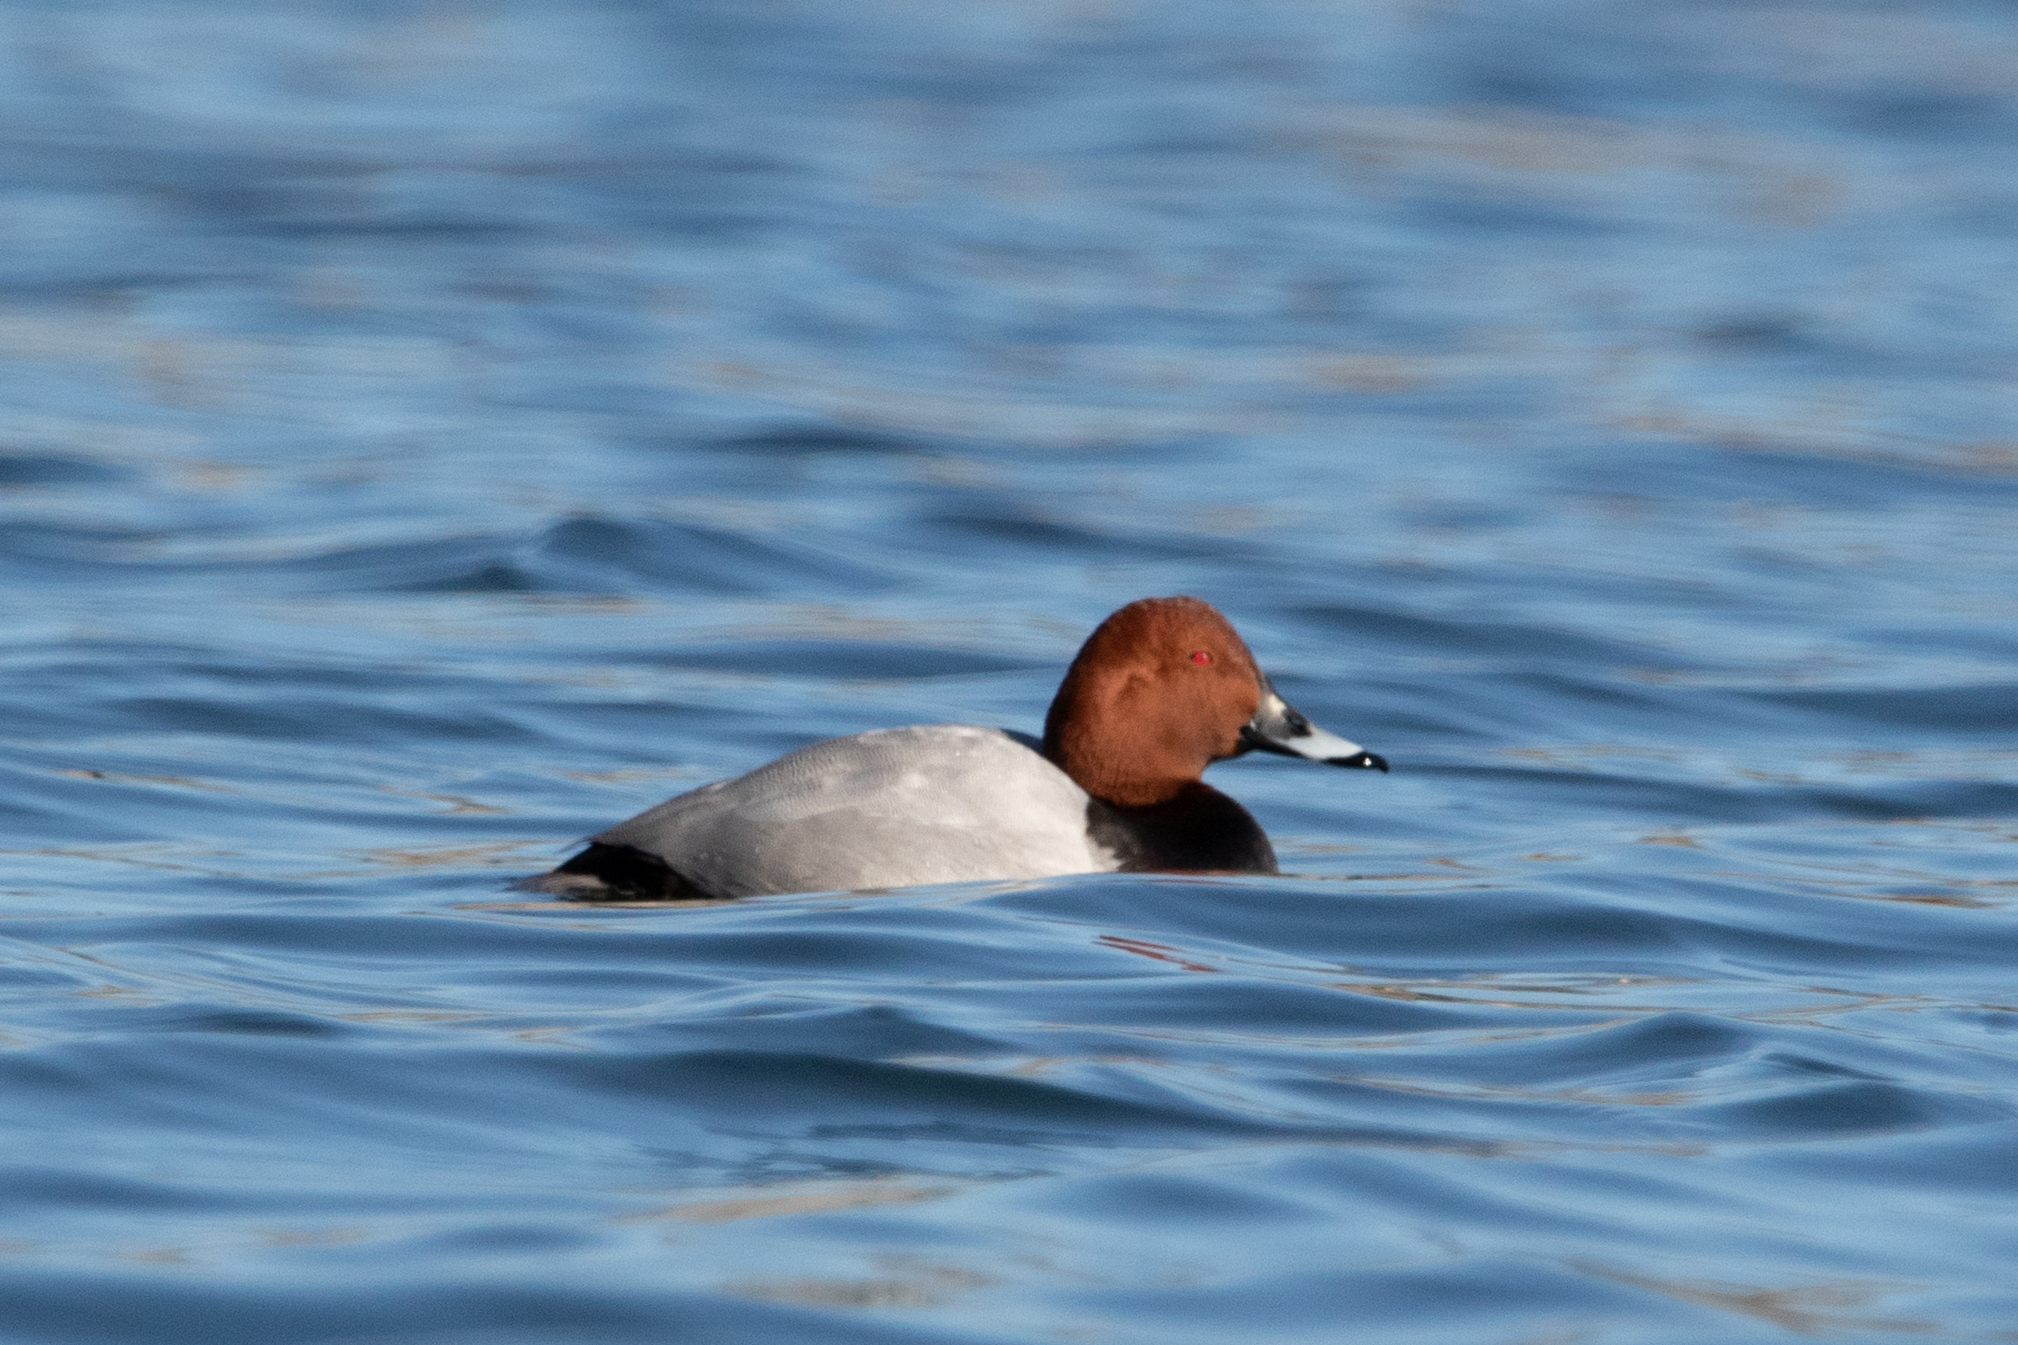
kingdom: Animalia
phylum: Chordata
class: Aves
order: Anseriformes
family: Anatidae
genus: Aythya
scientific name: Aythya ferina
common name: Common pochard
